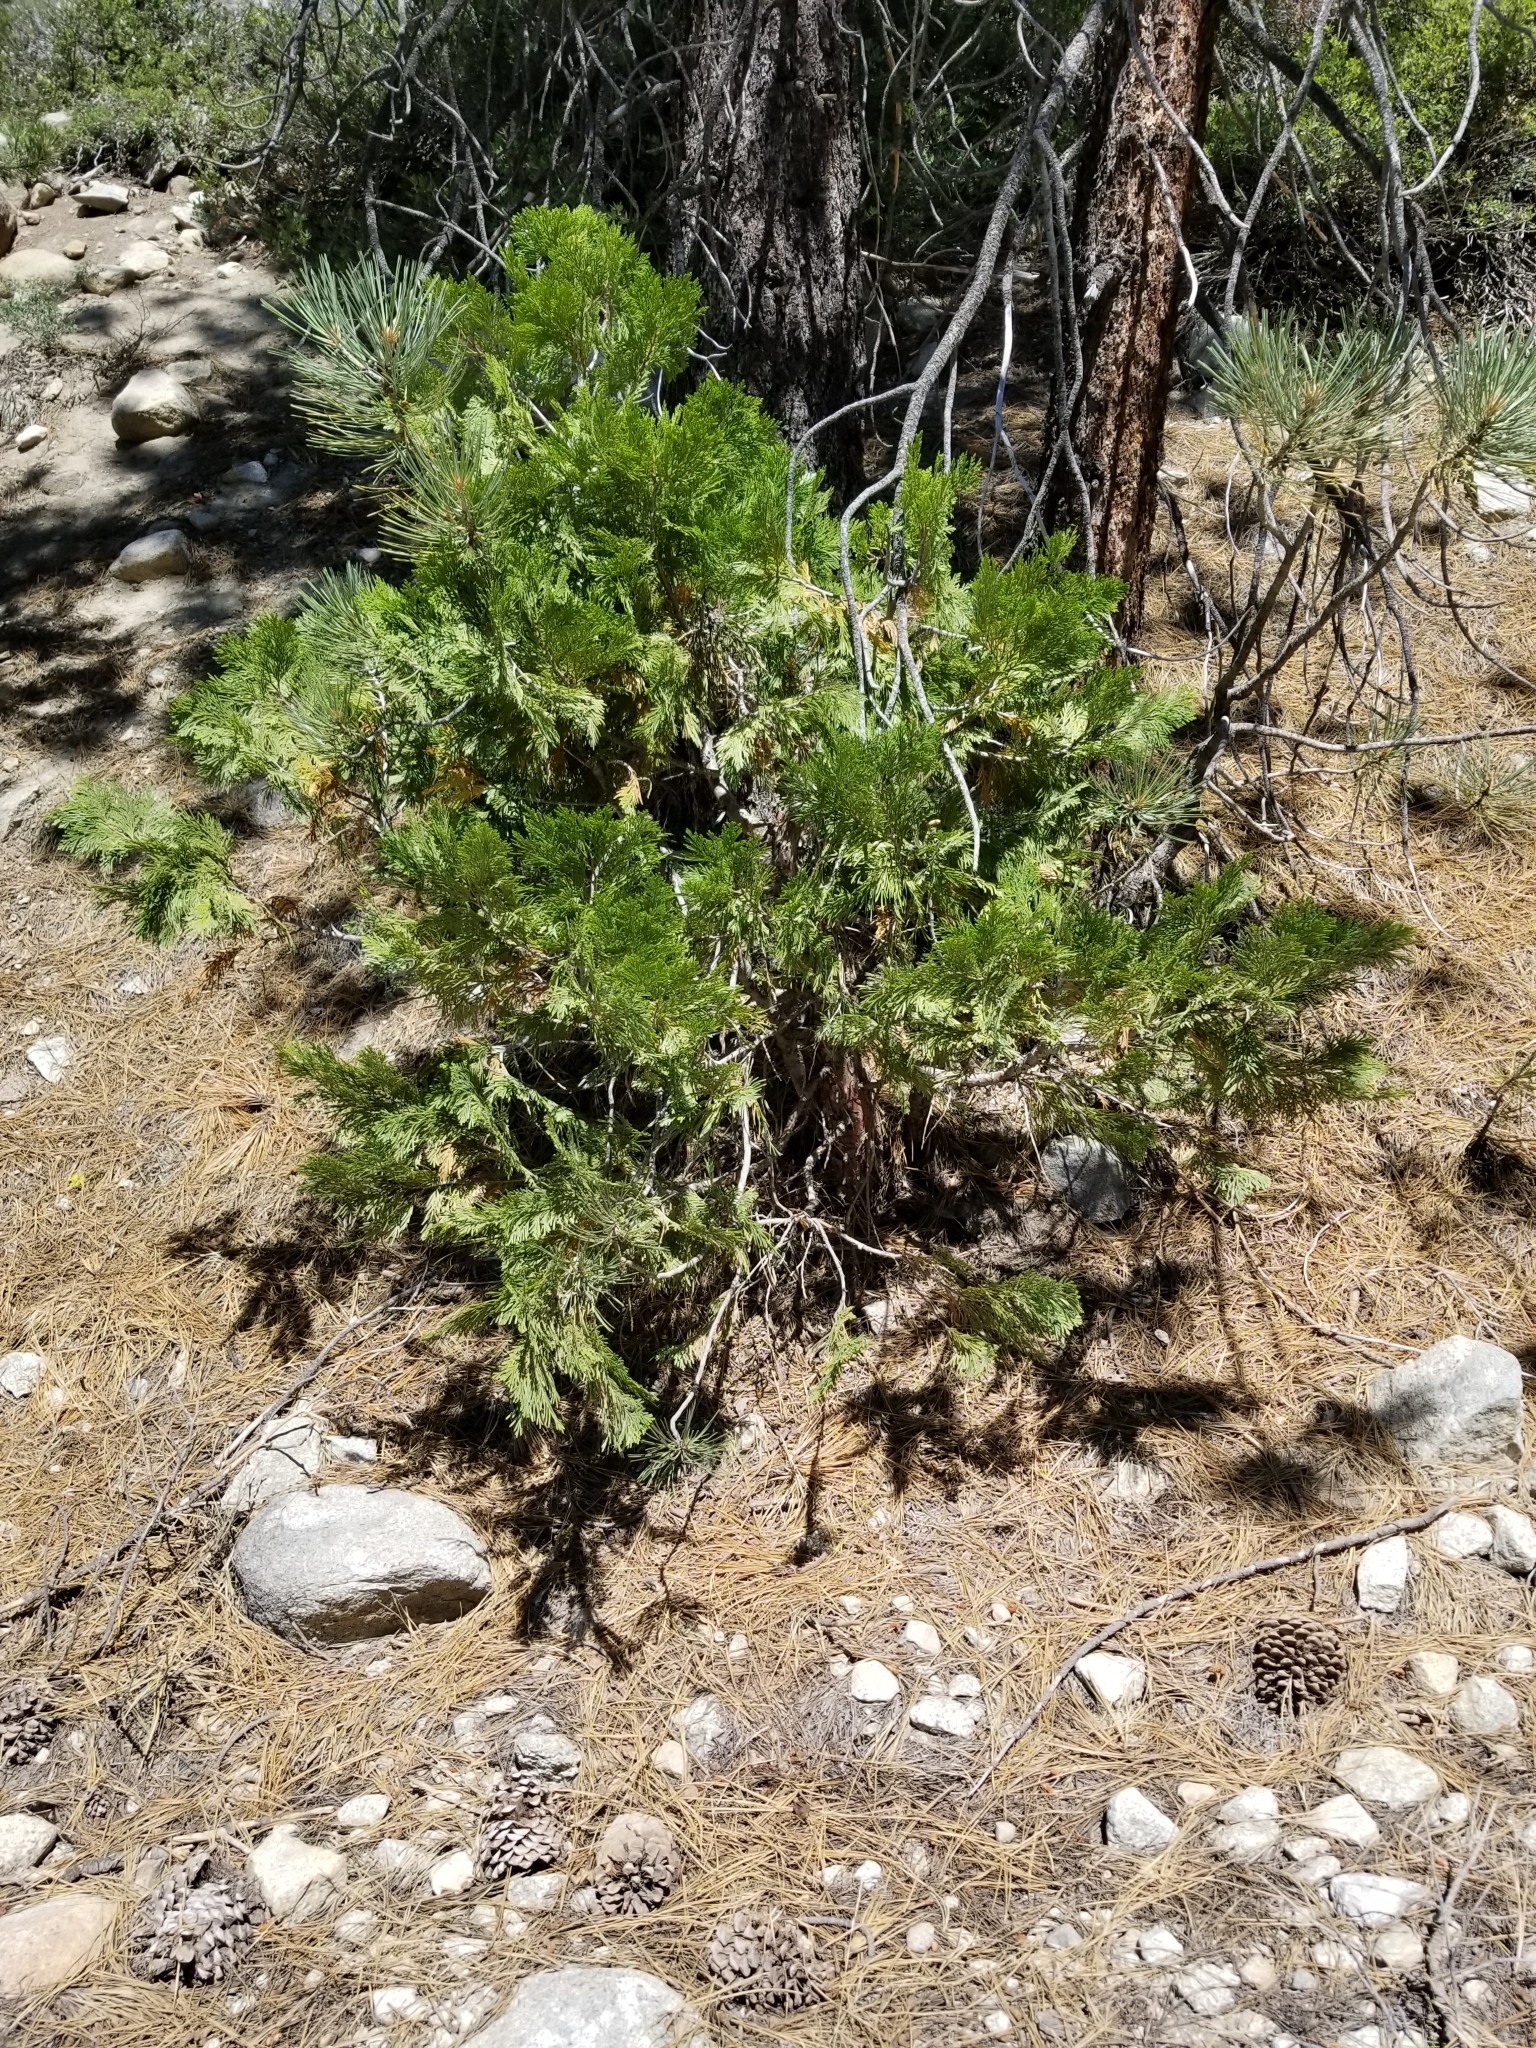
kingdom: Plantae
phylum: Tracheophyta
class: Pinopsida
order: Pinales
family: Cupressaceae
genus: Calocedrus
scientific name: Calocedrus decurrens
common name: Californian incense-cedar
